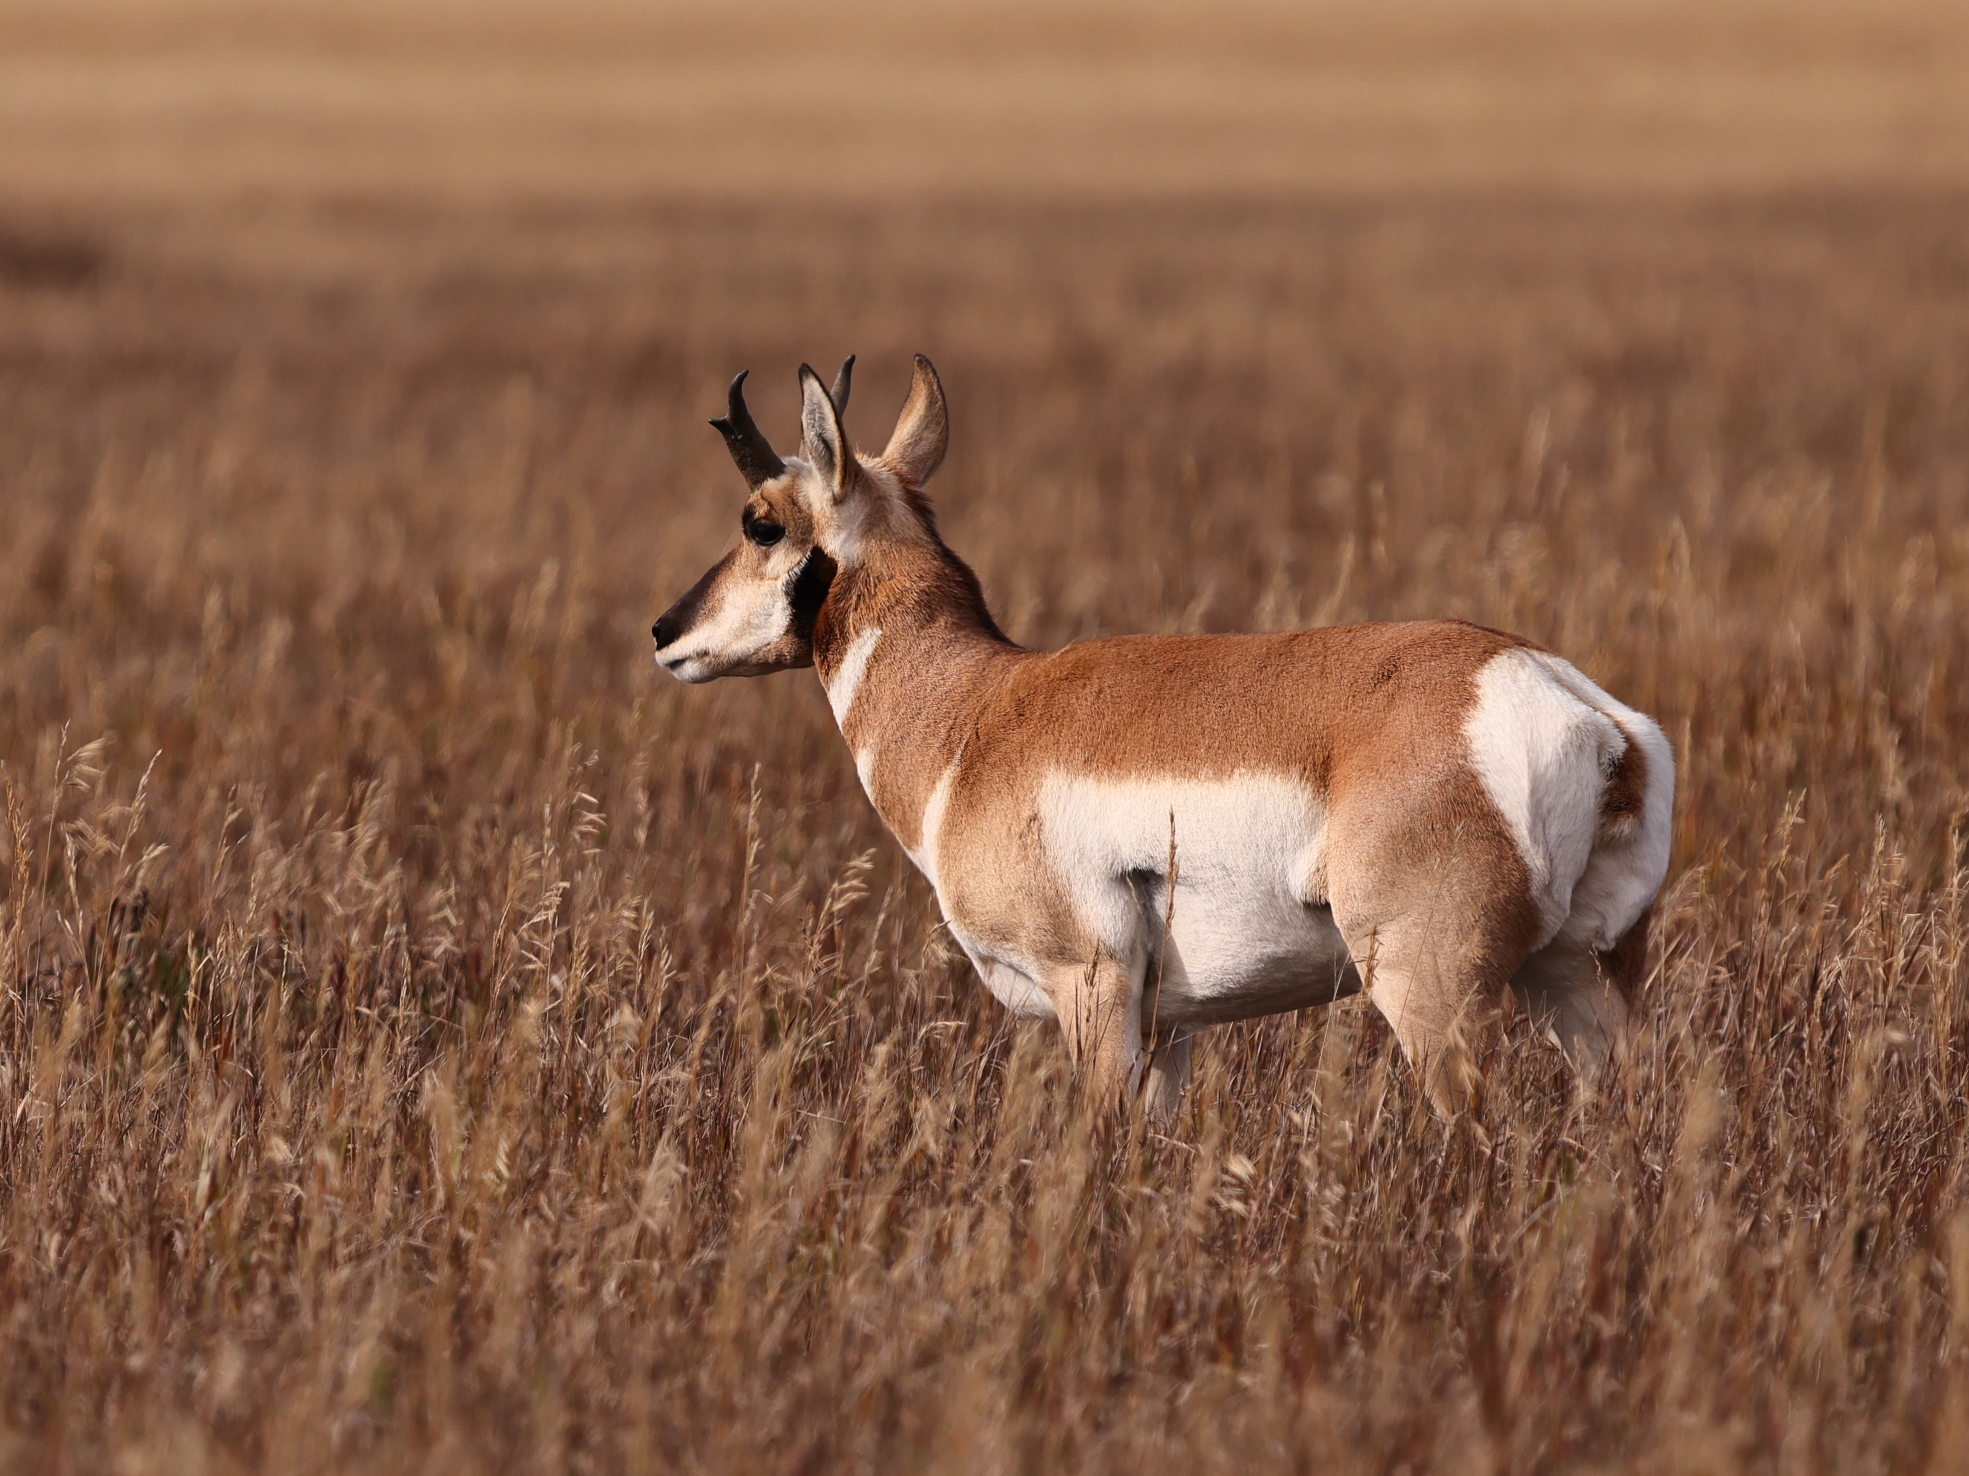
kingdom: Animalia
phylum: Chordata
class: Mammalia
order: Artiodactyla
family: Antilocapridae
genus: Antilocapra
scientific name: Antilocapra americana
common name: Pronghorn
